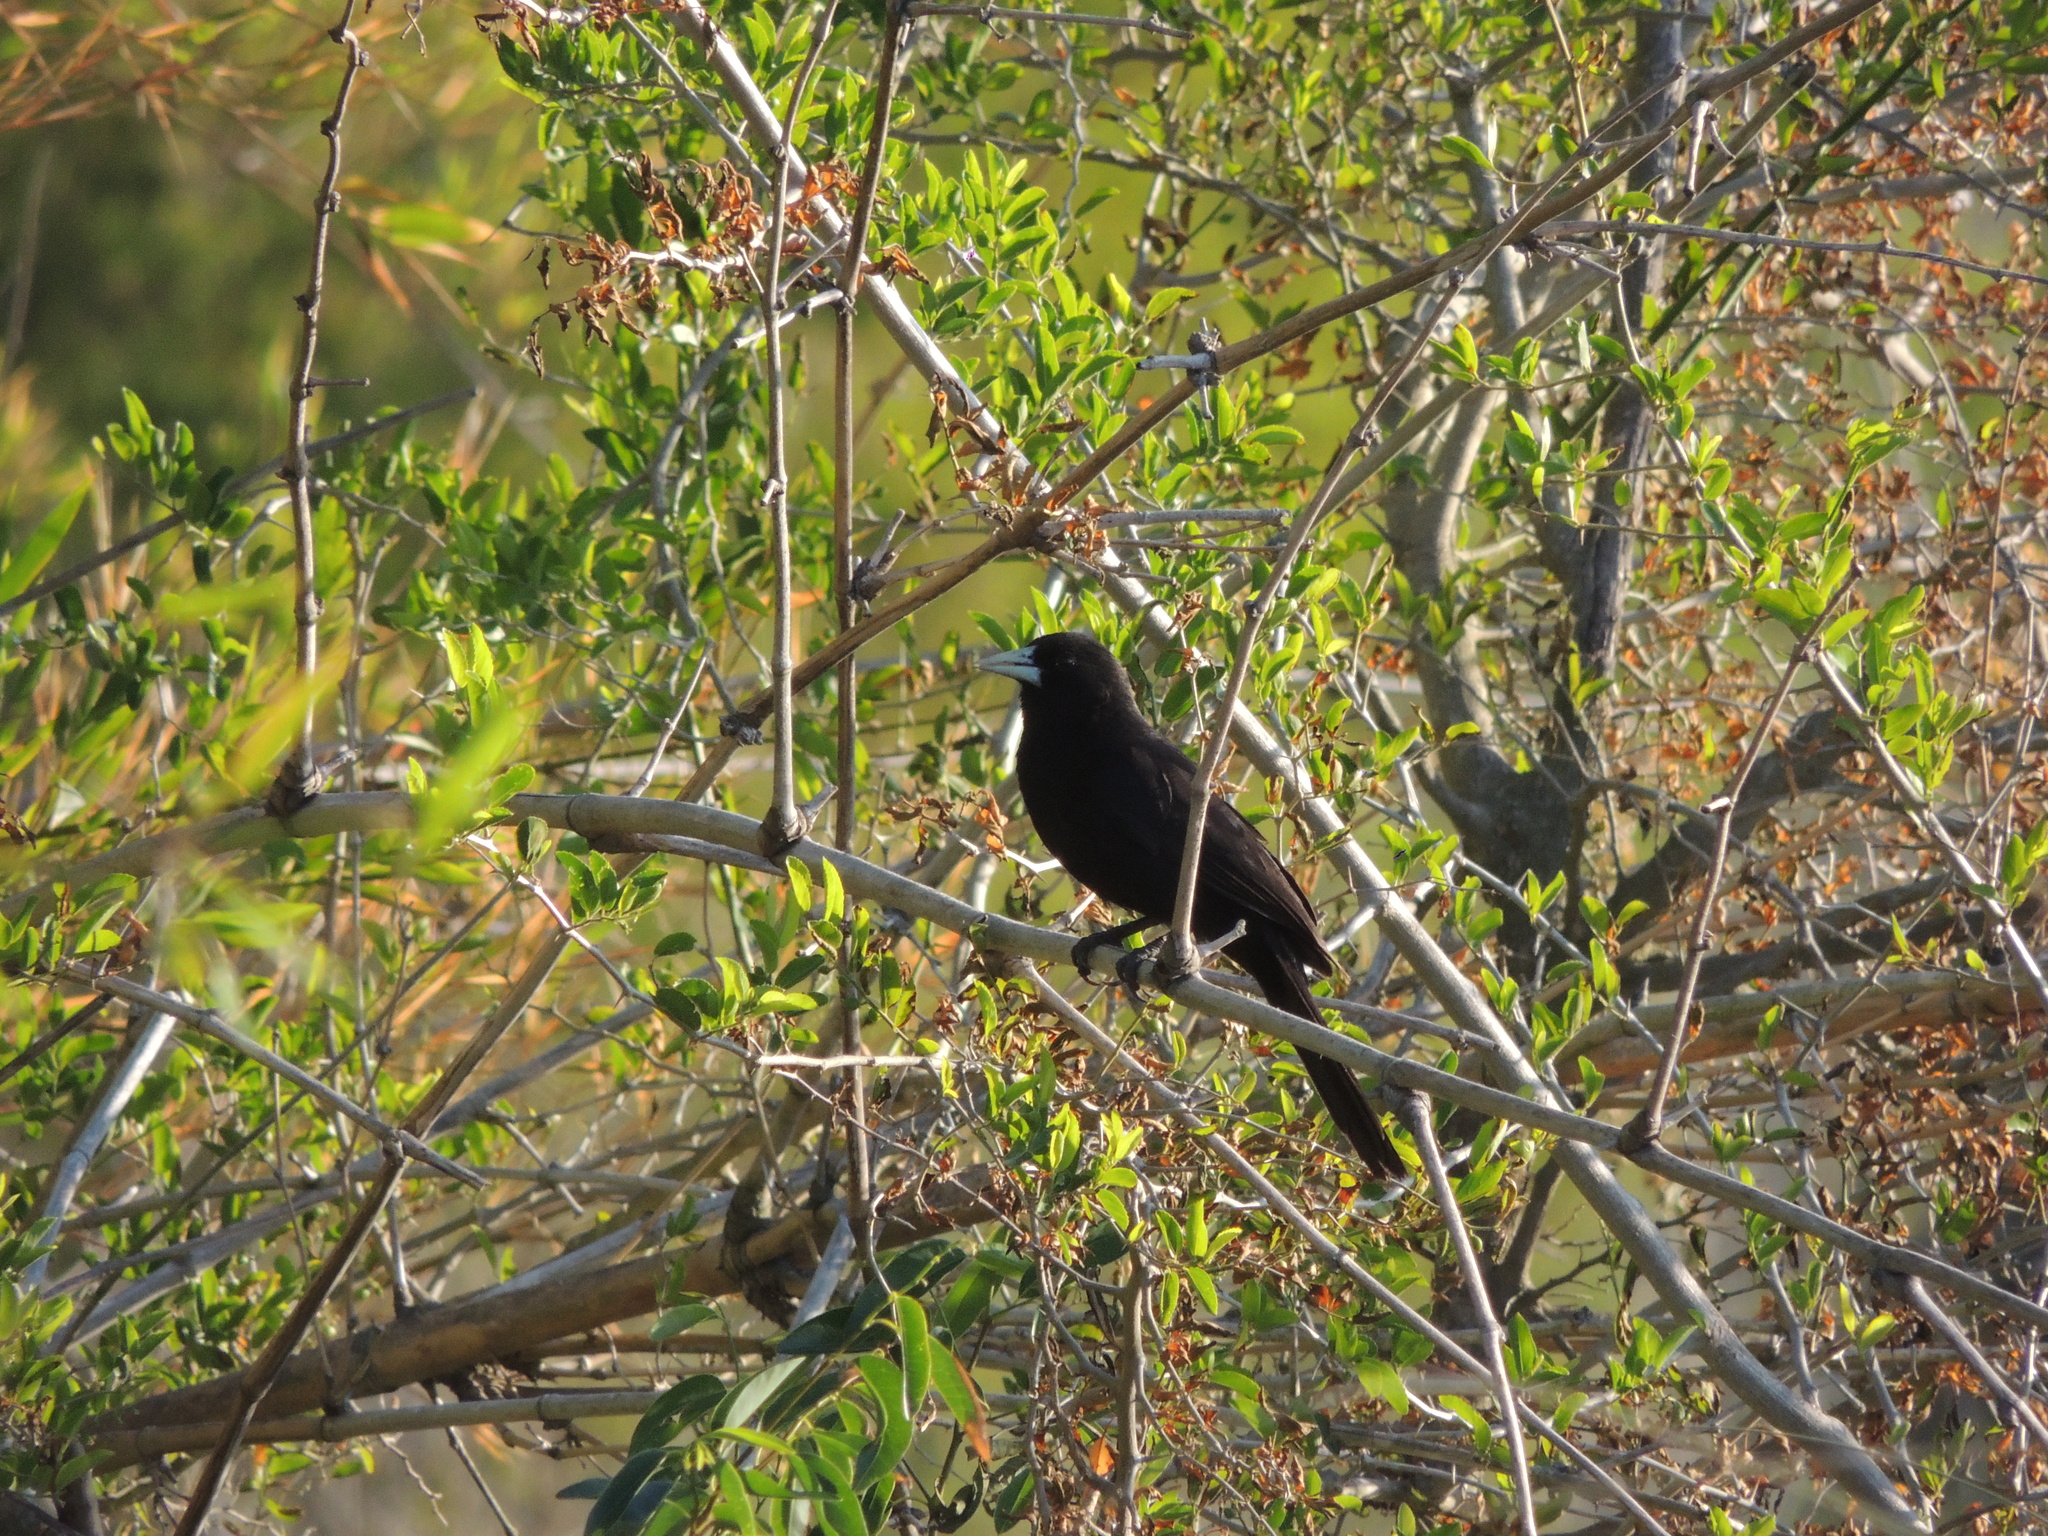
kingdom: Animalia
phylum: Chordata
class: Aves
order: Passeriformes
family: Icteridae
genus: Cacicus
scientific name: Cacicus solitarius
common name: Solitary cacique
